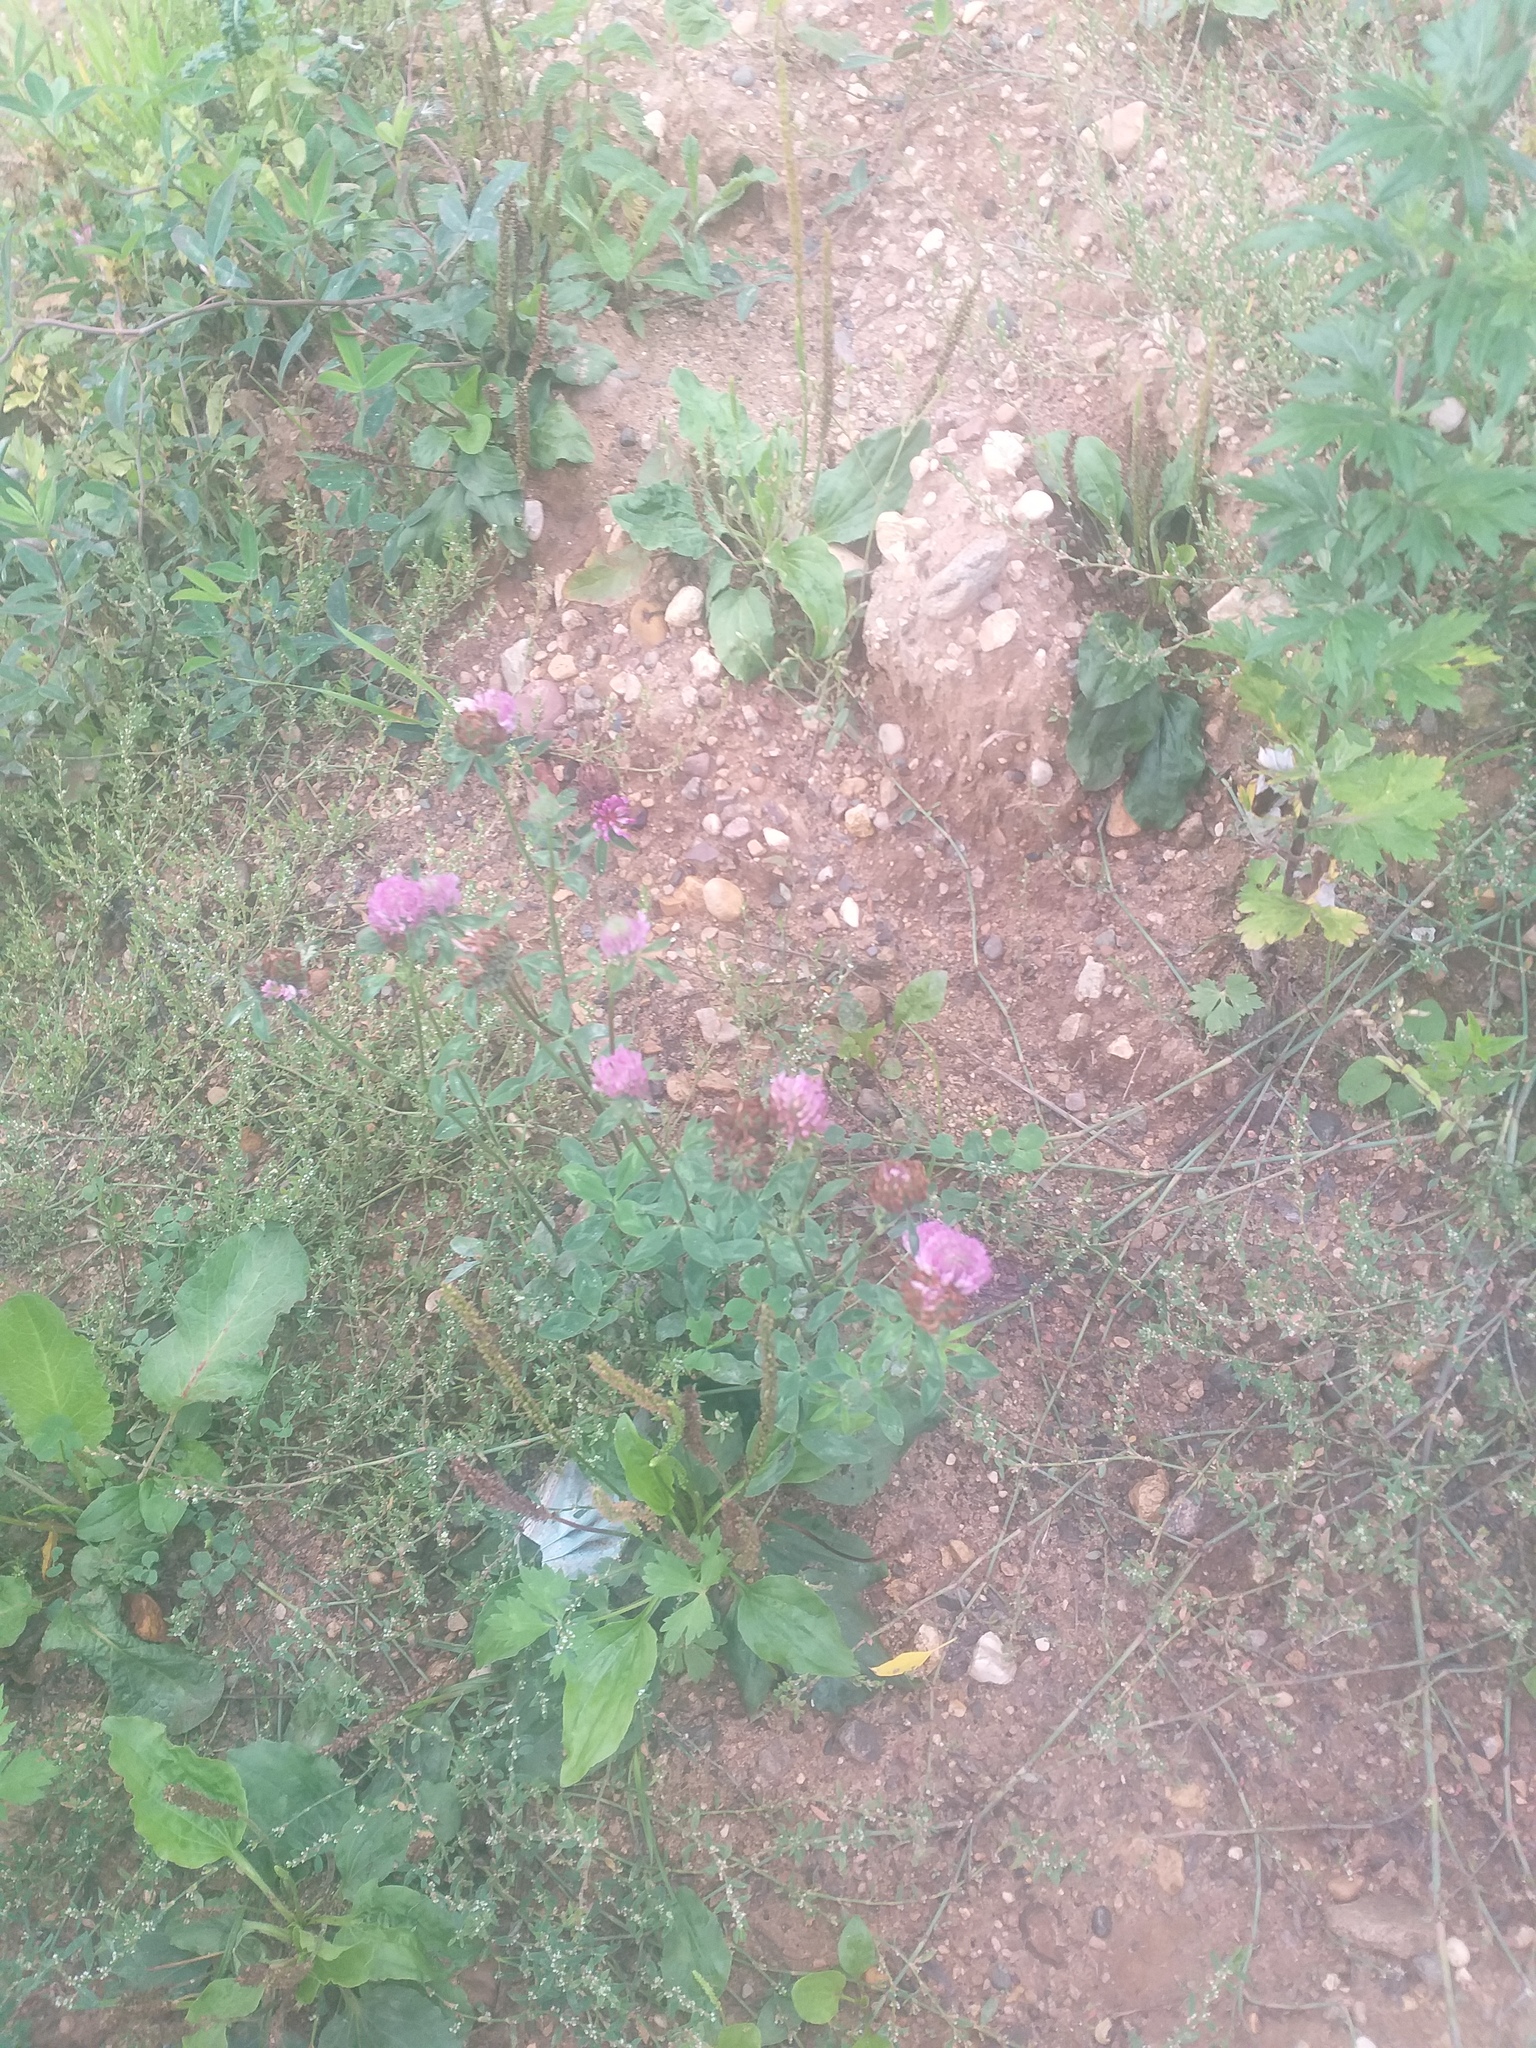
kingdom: Plantae
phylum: Tracheophyta
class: Magnoliopsida
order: Fabales
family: Fabaceae
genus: Trifolium
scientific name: Trifolium pratense
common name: Red clover
